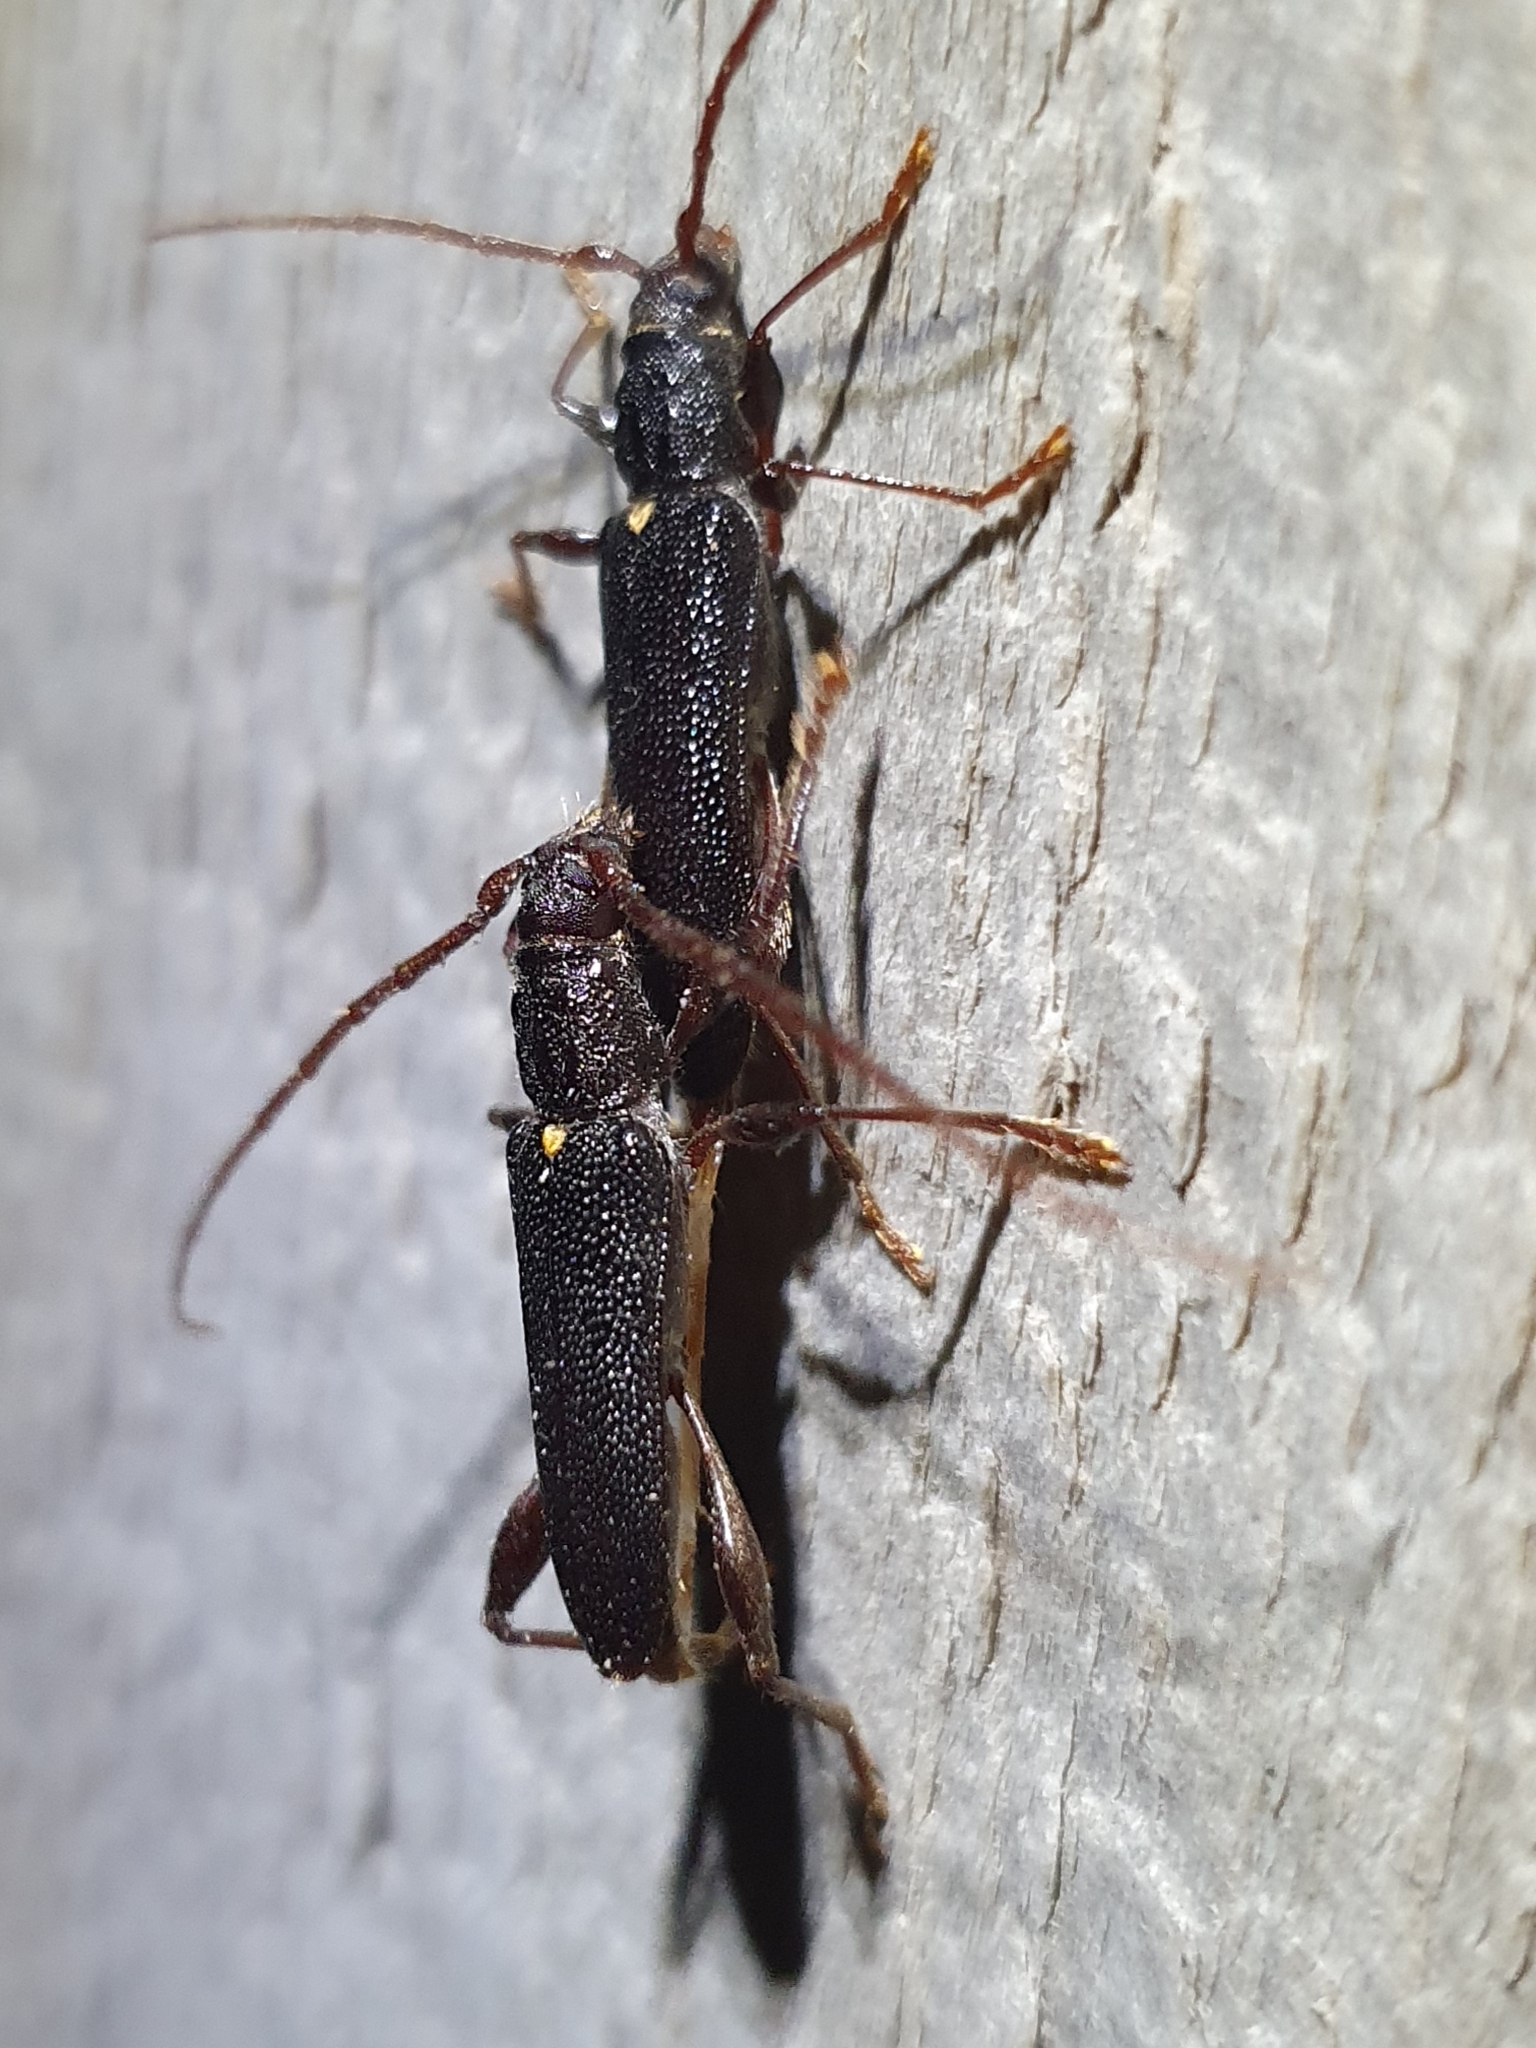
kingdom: Animalia
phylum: Arthropoda
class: Insecta
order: Coleoptera
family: Cerambycidae
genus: Callidiopis
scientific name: Callidiopis scutellaris
